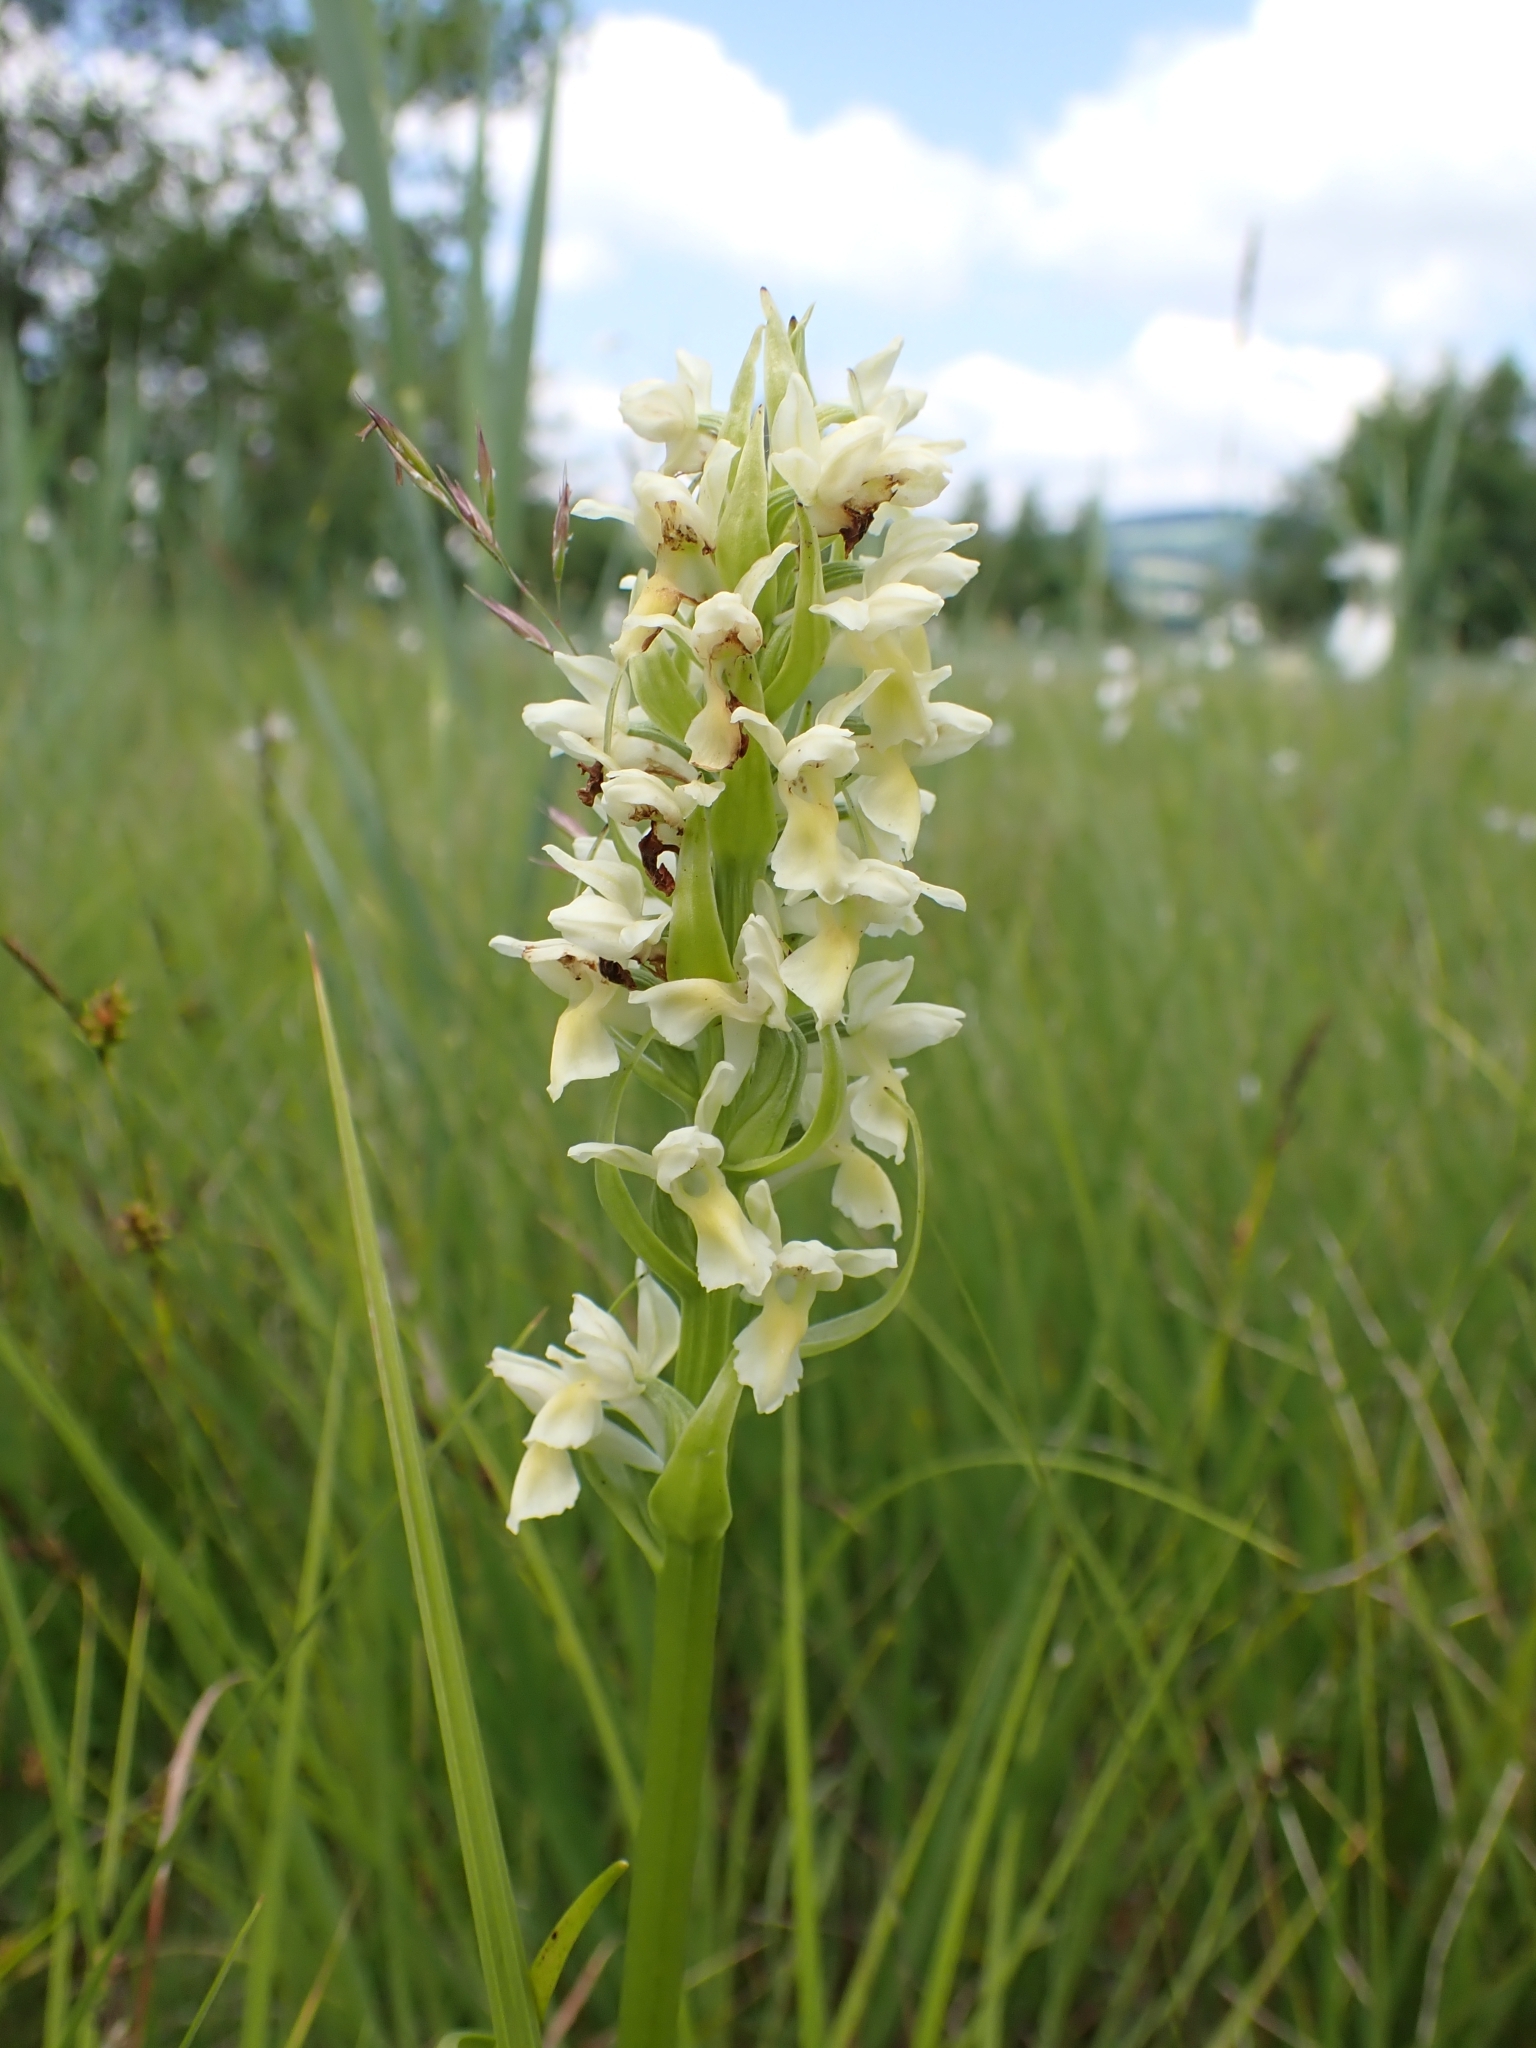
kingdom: Plantae
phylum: Tracheophyta
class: Liliopsida
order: Asparagales
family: Orchidaceae
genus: Dactylorhiza
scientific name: Dactylorhiza incarnata
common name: Early marsh-orchid
